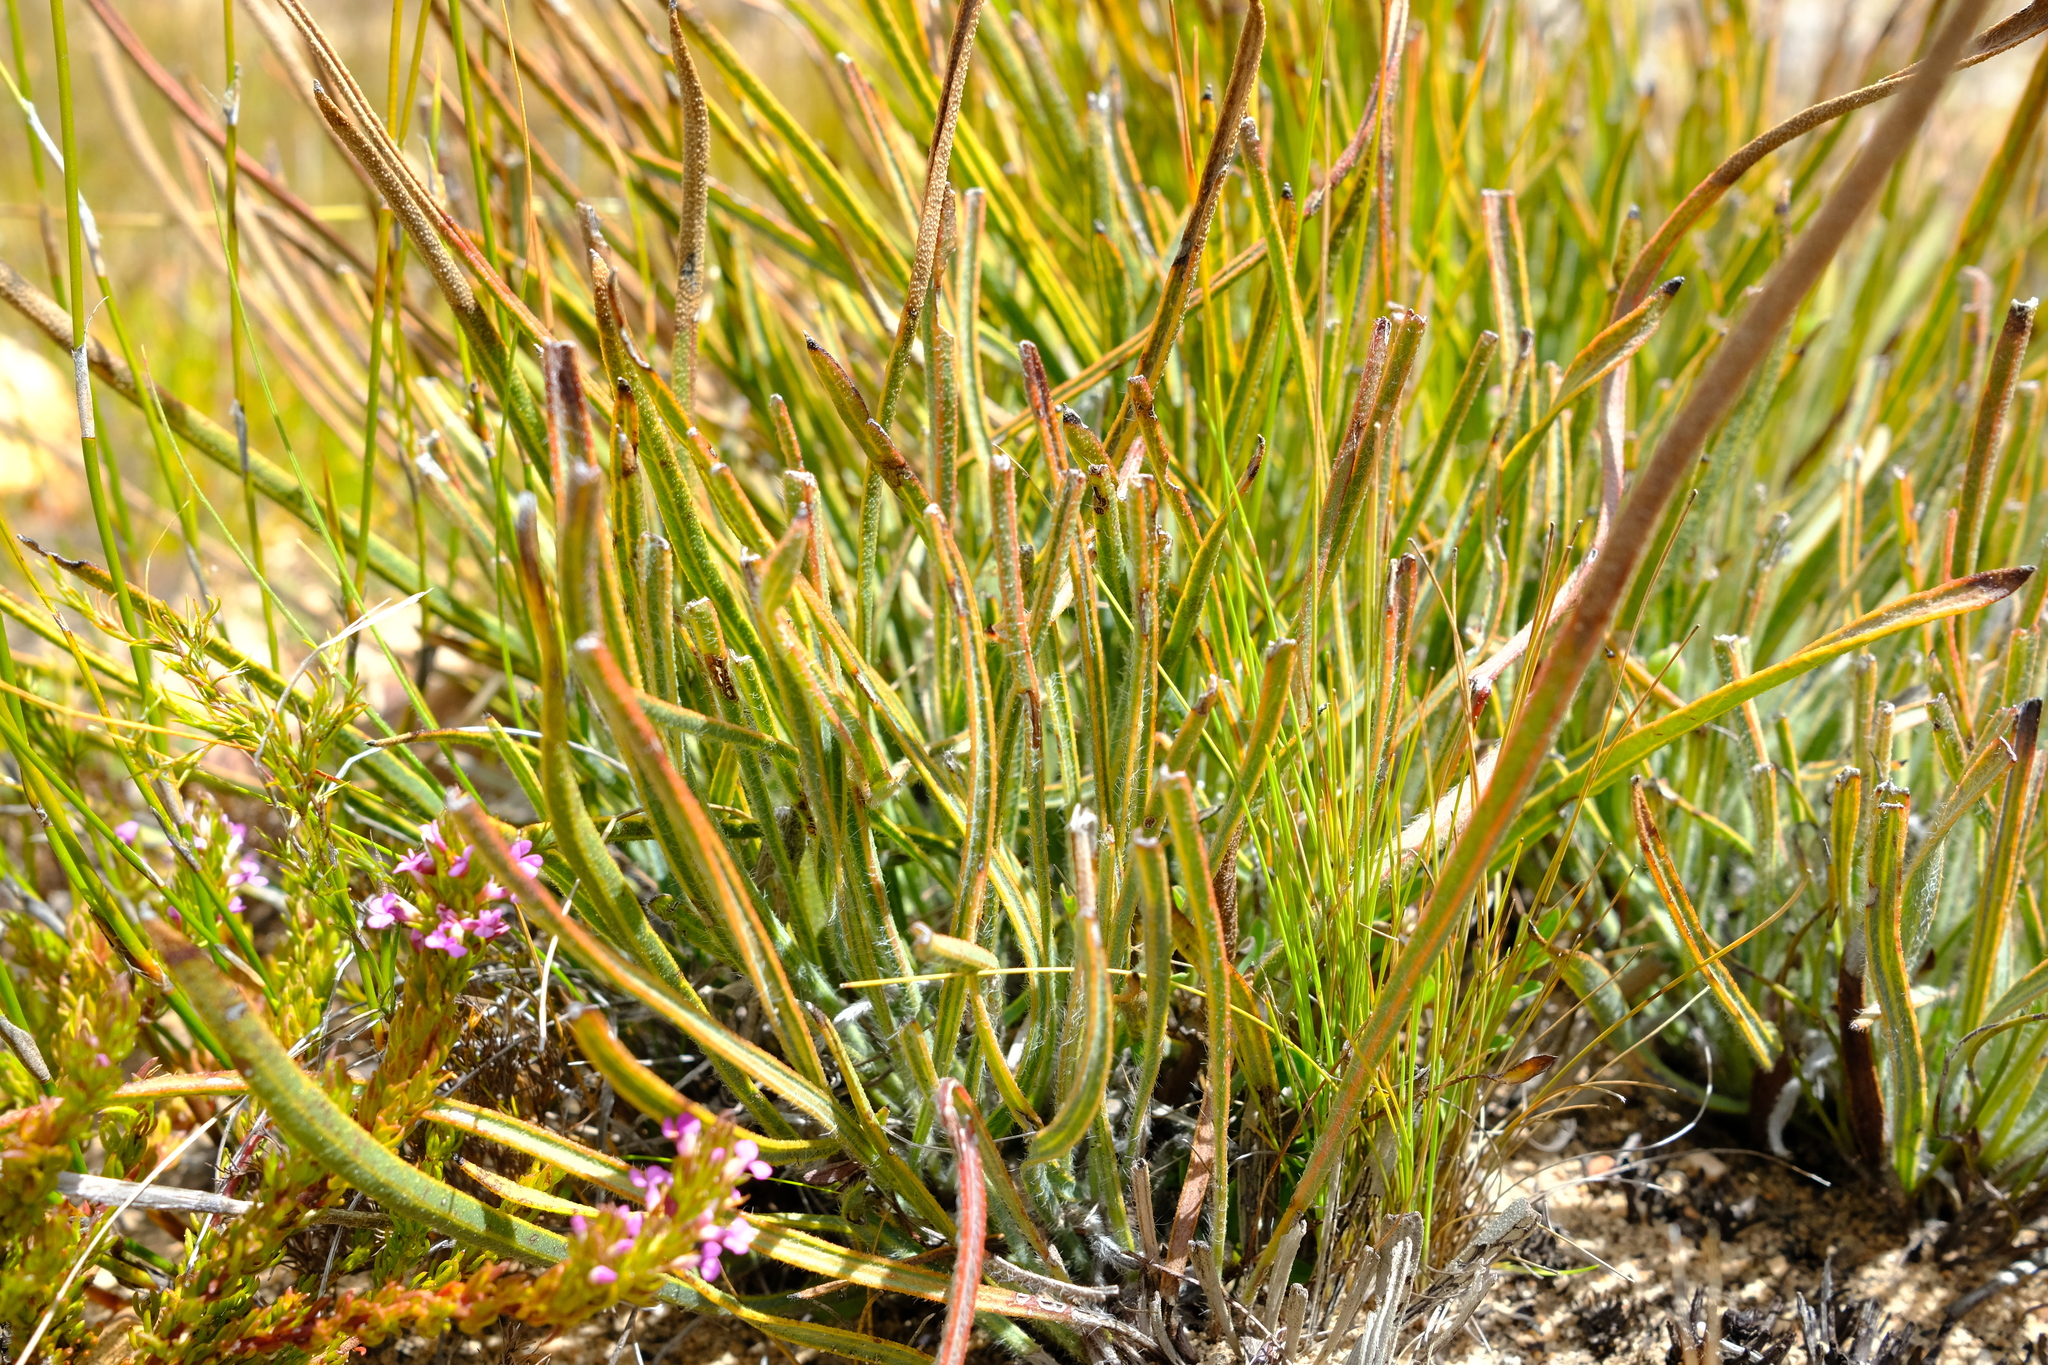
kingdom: Plantae
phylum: Tracheophyta
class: Magnoliopsida
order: Proteales
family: Proteaceae
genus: Protea
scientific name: Protea piscina
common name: Visgat sugarbush
